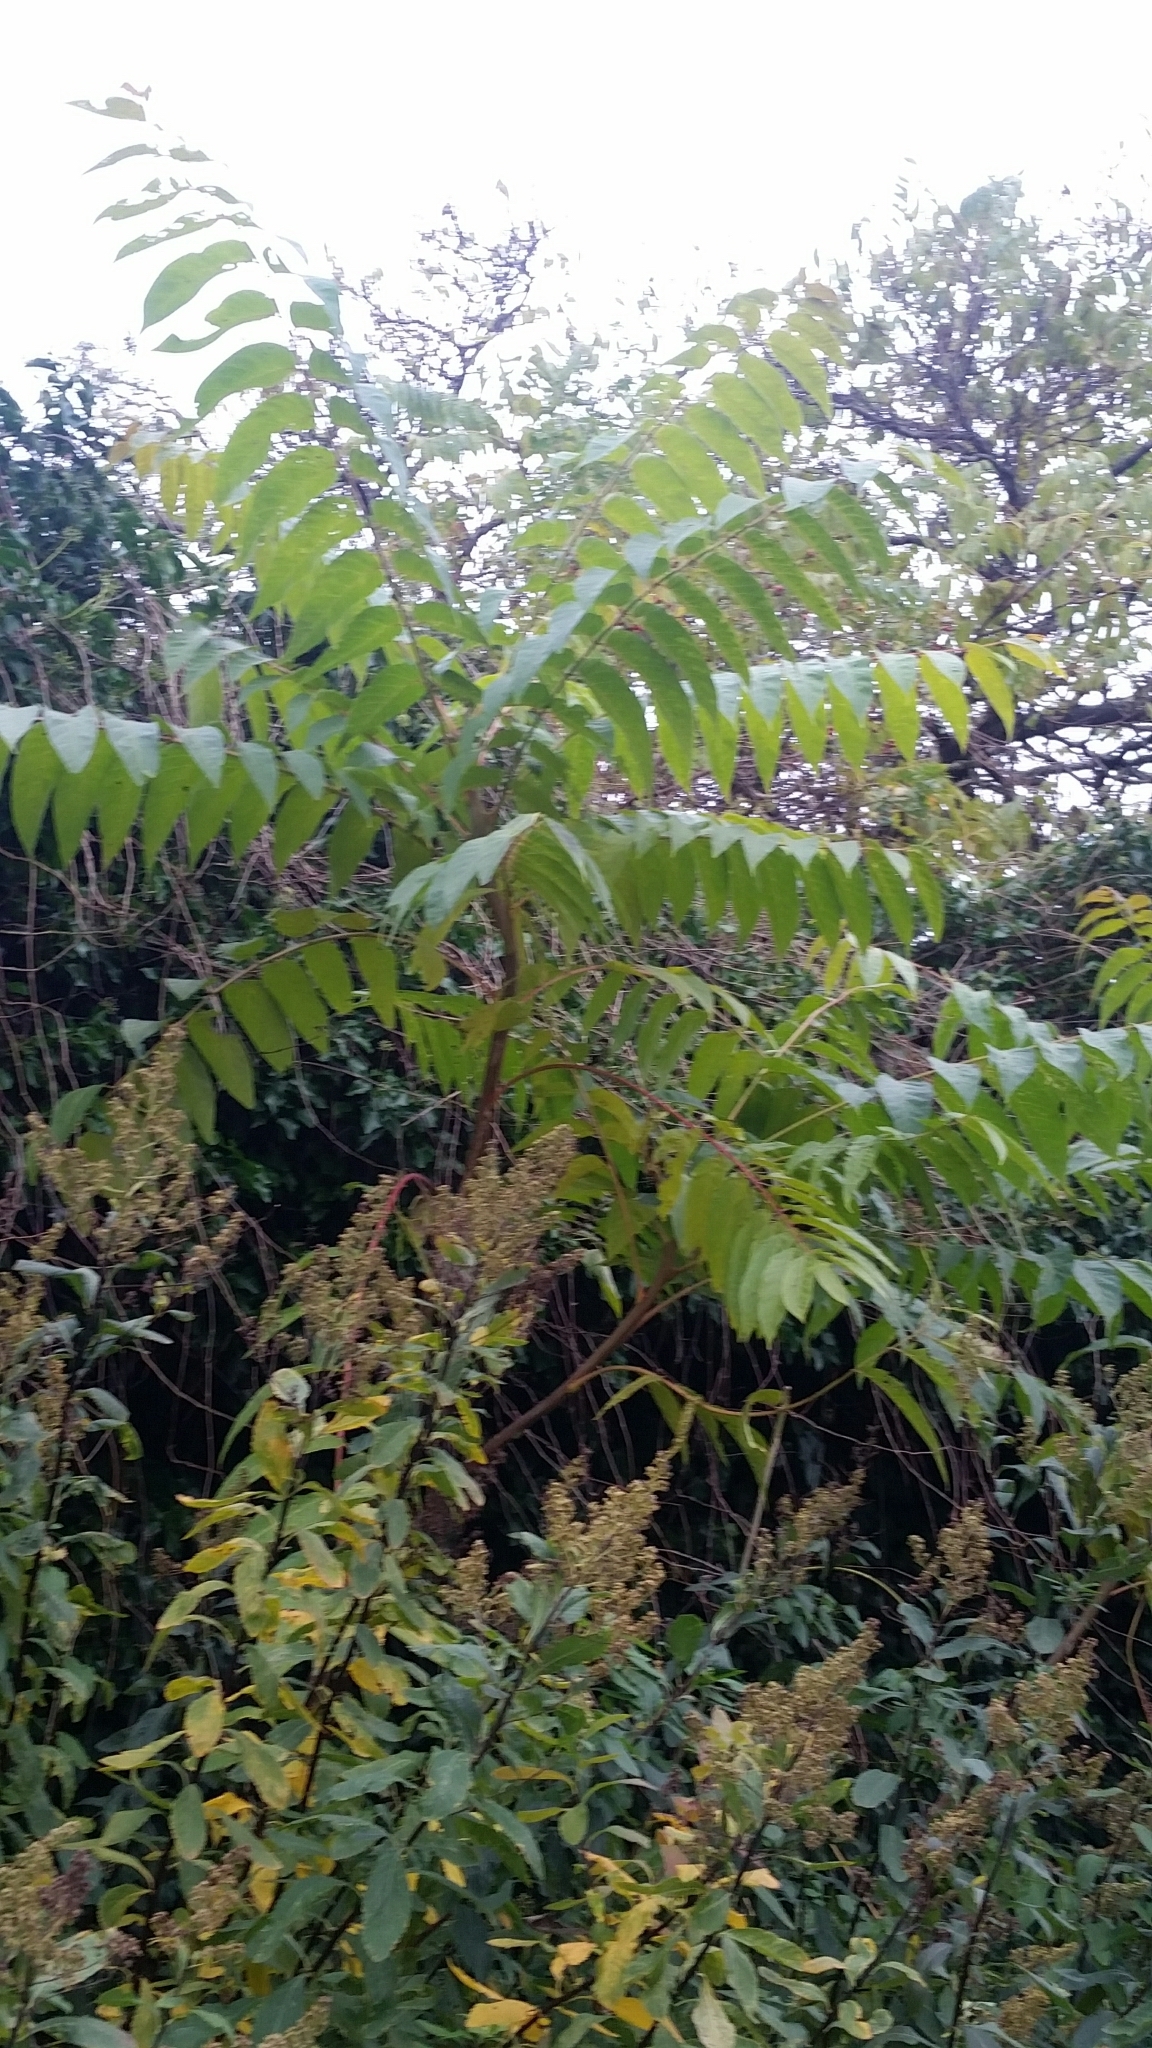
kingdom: Plantae
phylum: Tracheophyta
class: Magnoliopsida
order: Sapindales
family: Simaroubaceae
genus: Ailanthus
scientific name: Ailanthus altissima
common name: Tree-of-heaven
